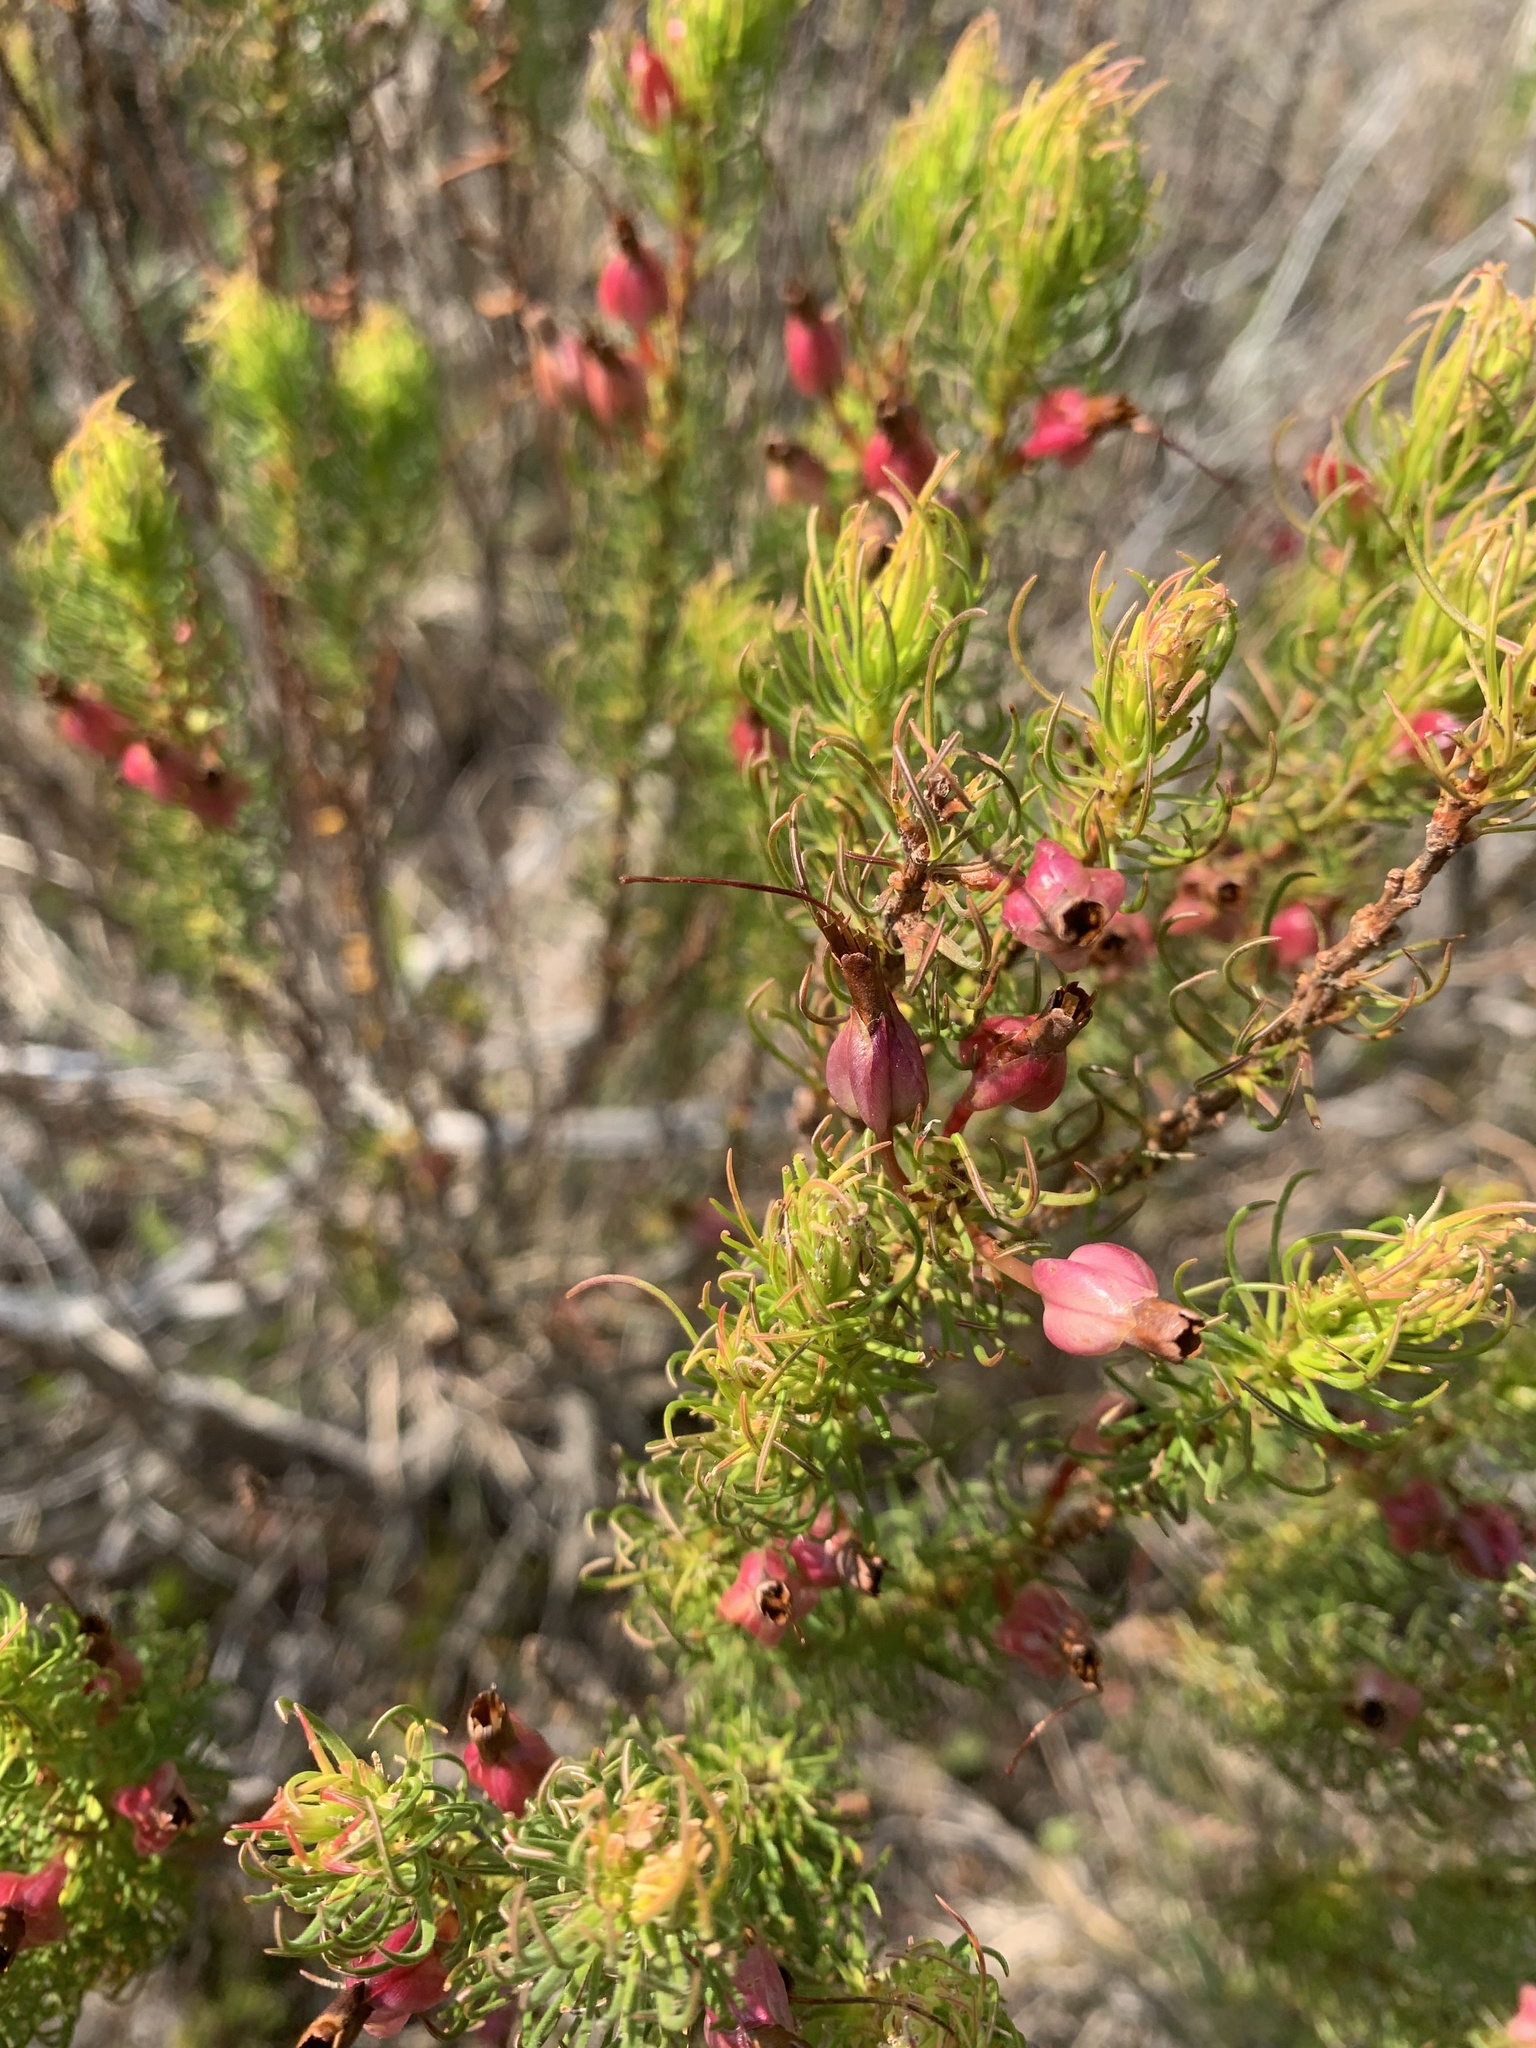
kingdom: Plantae
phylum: Tracheophyta
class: Magnoliopsida
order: Ericales
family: Ericaceae
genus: Erica
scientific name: Erica plukenetii
